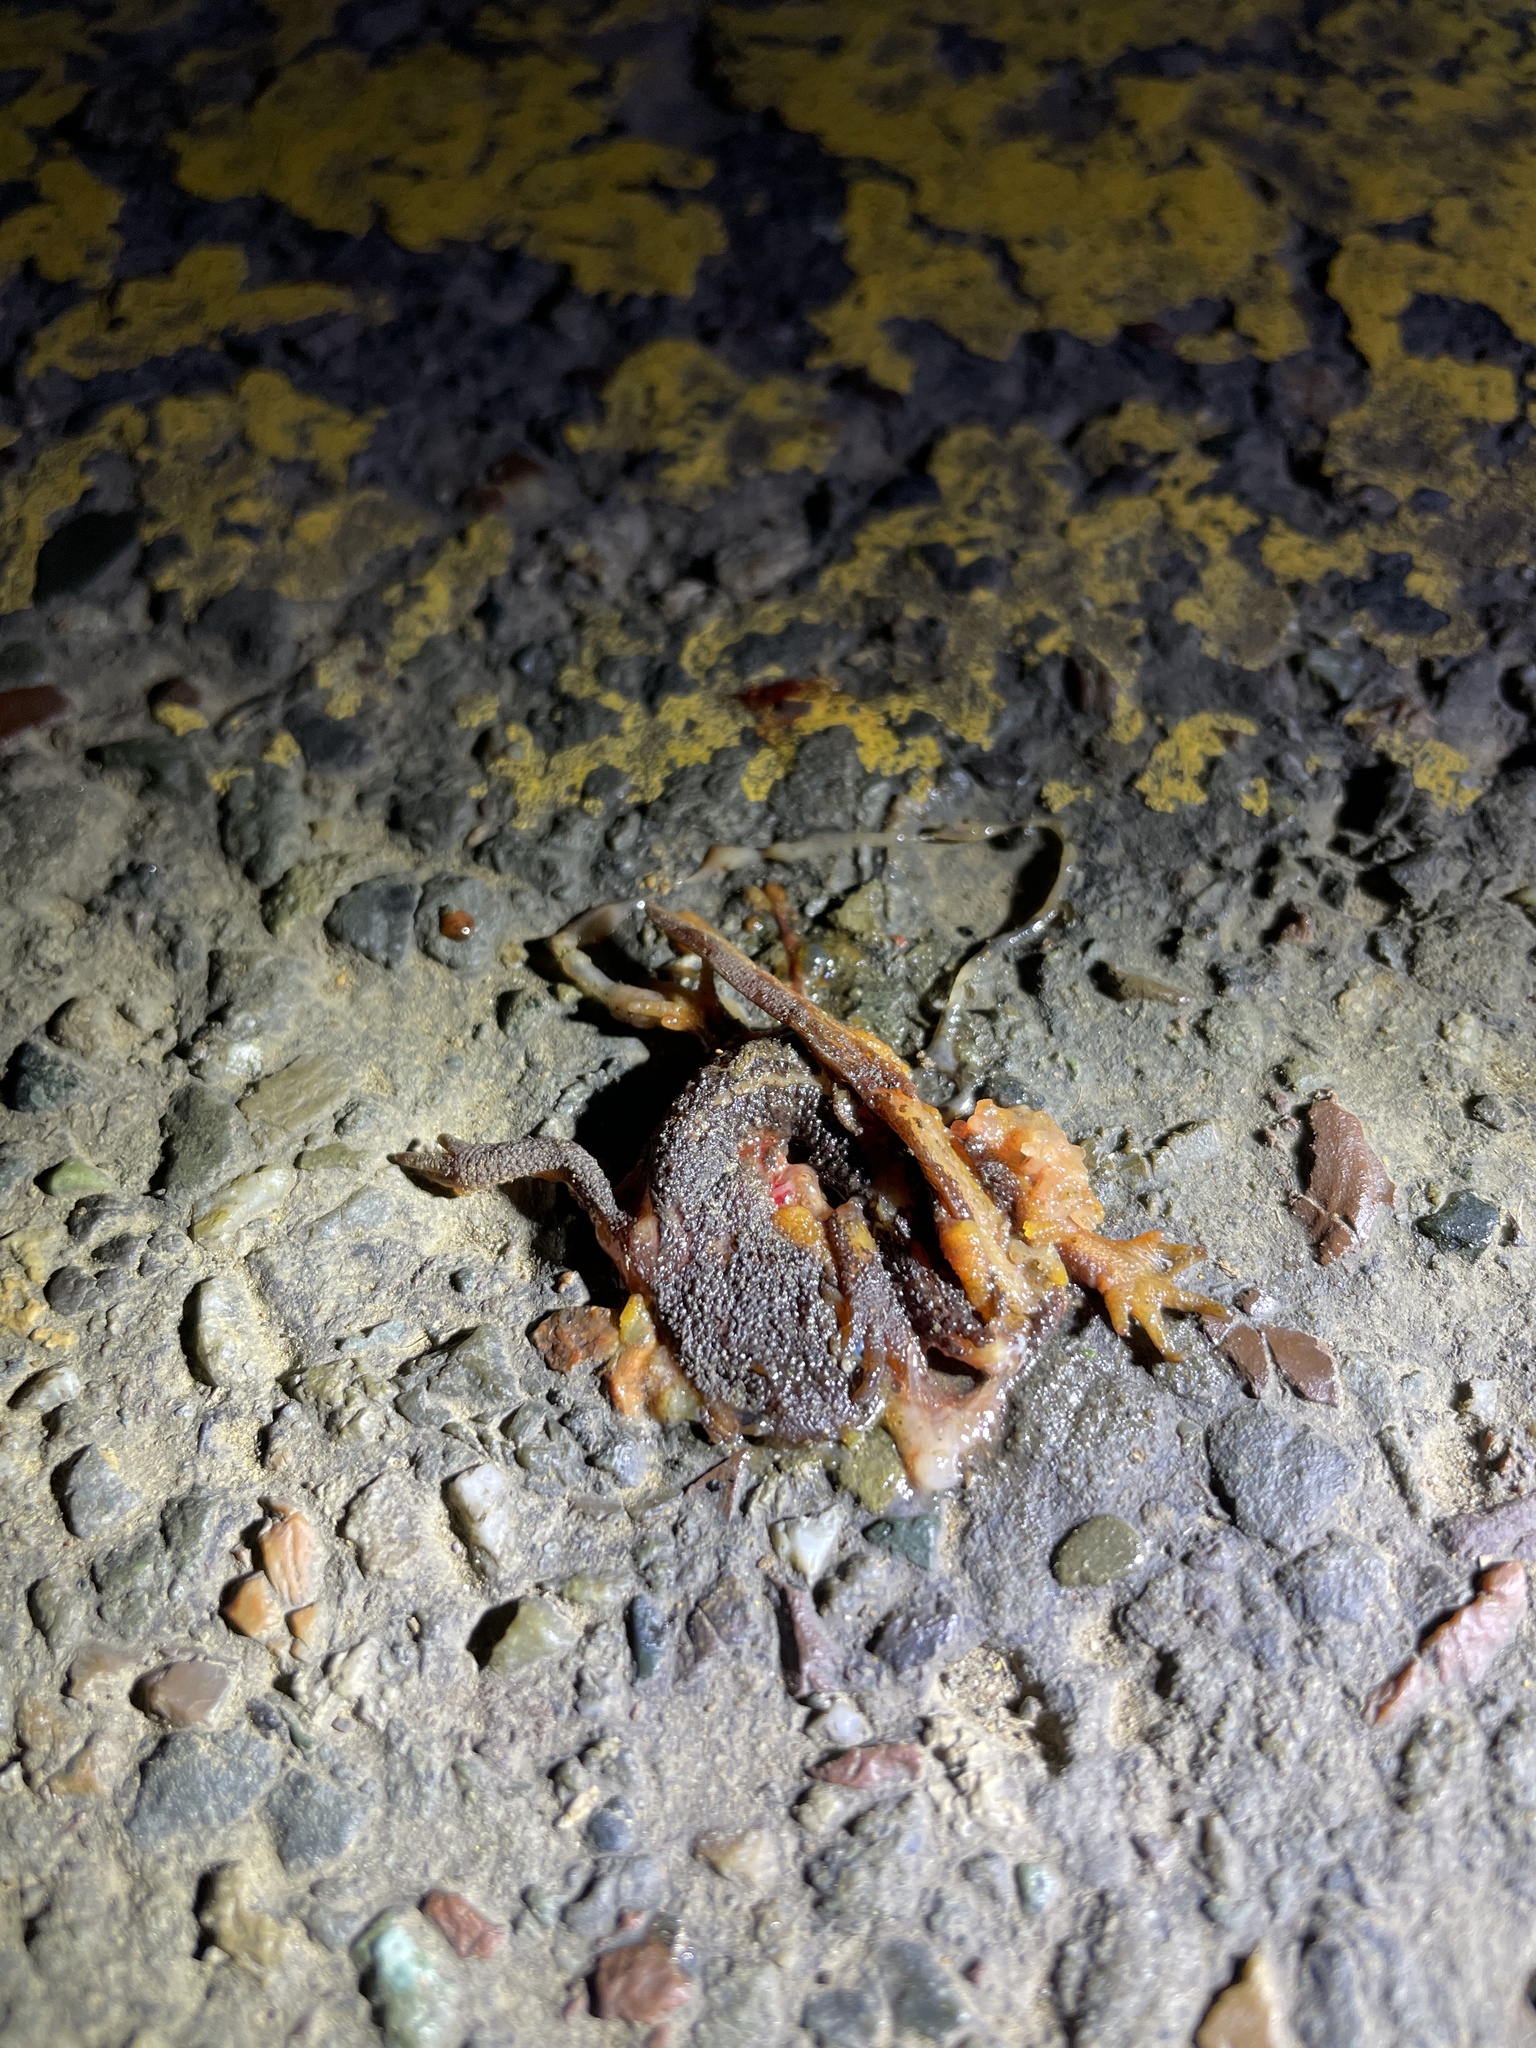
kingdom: Animalia
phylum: Chordata
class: Amphibia
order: Caudata
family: Salamandridae
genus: Taricha
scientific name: Taricha
